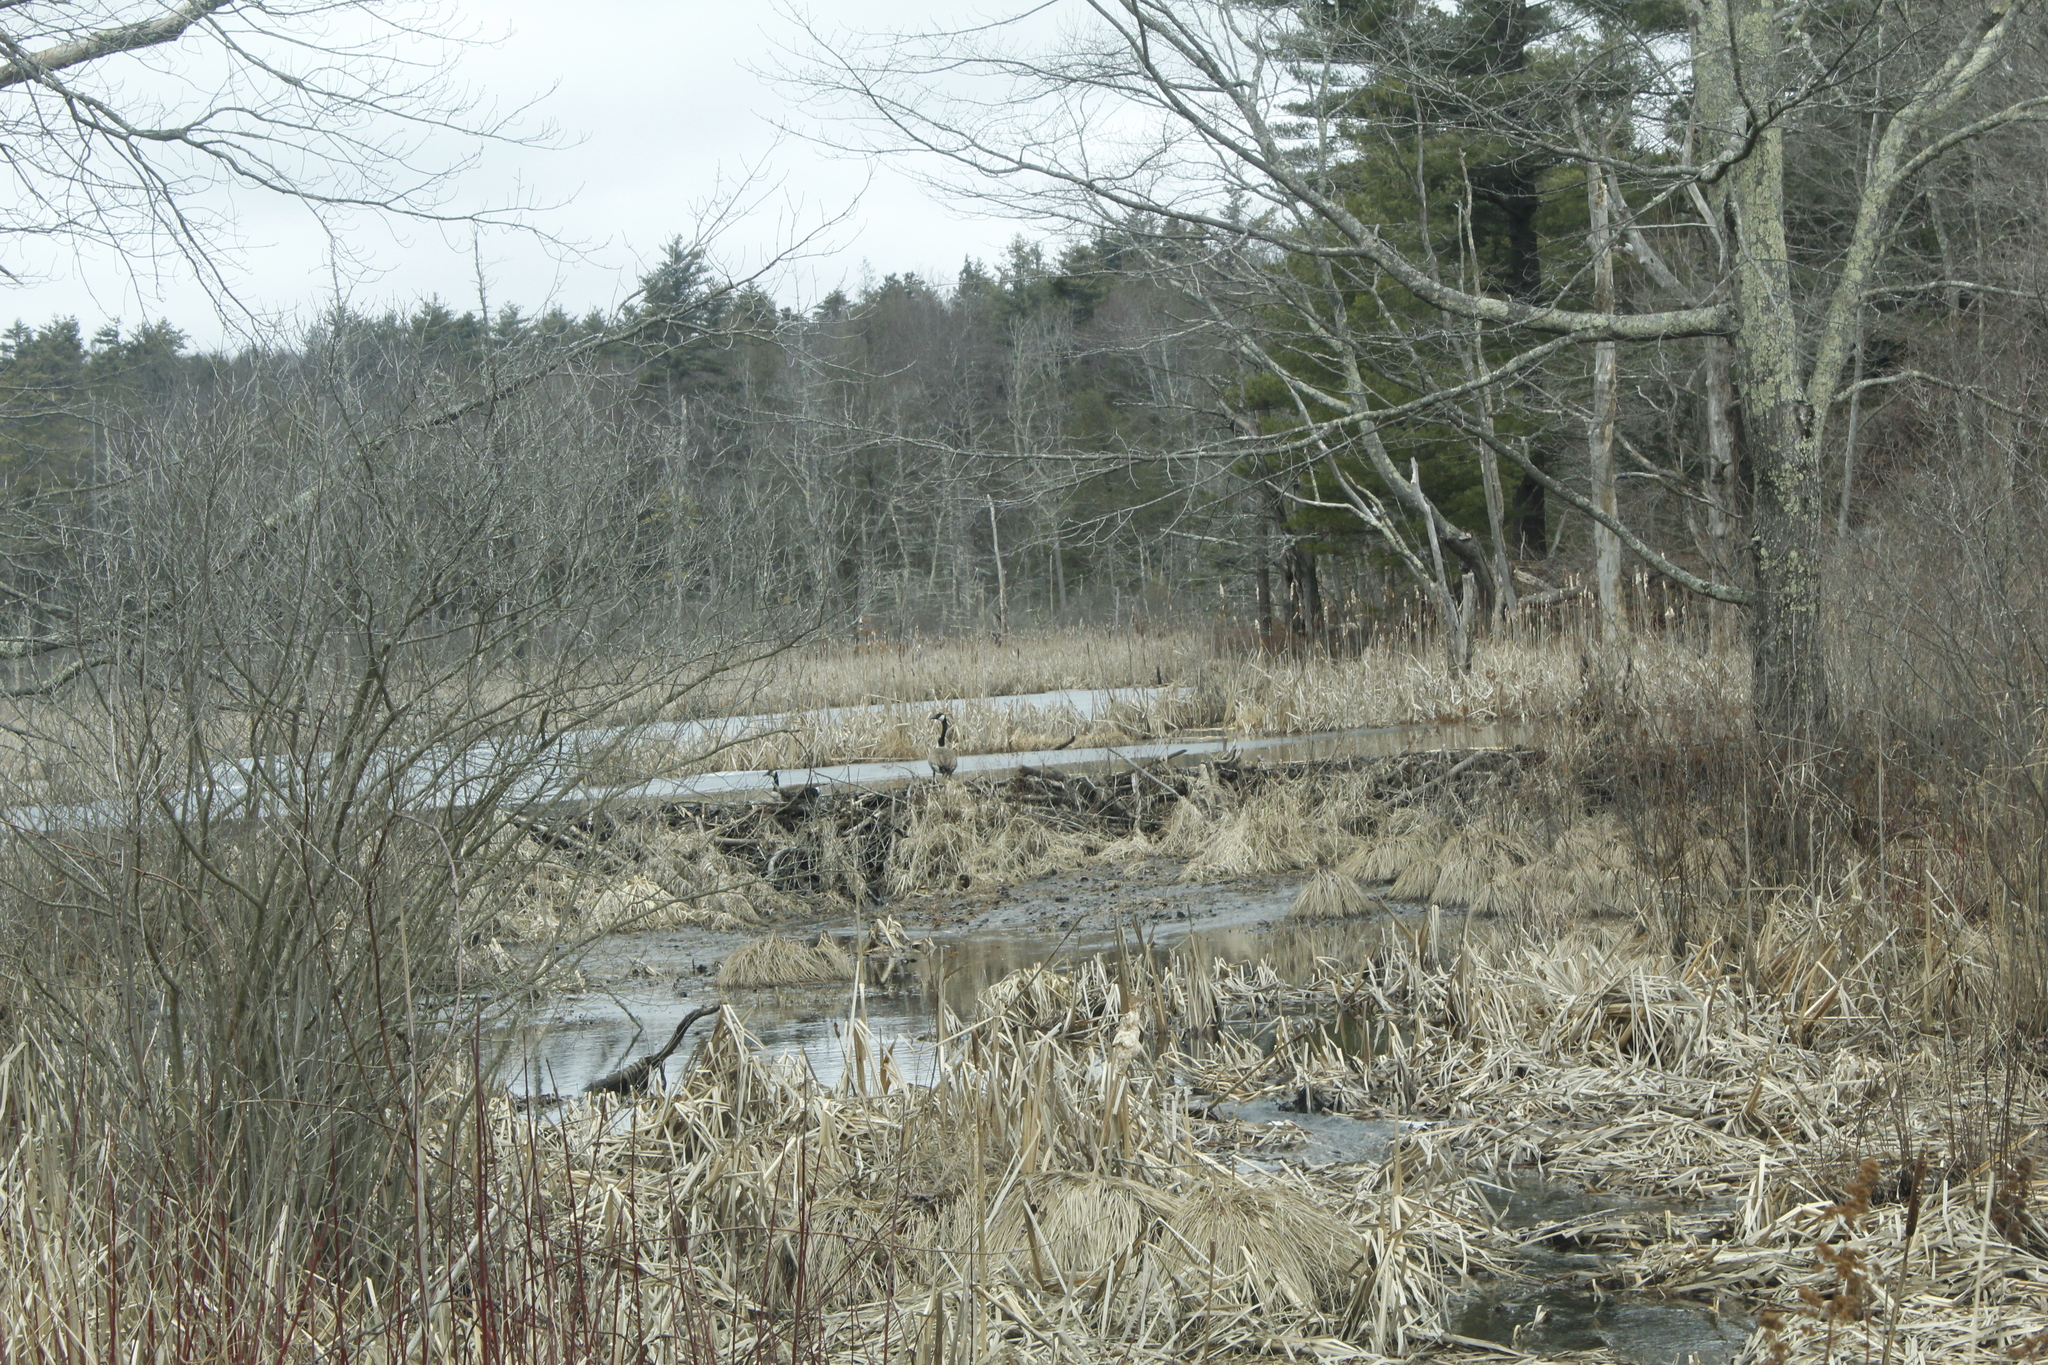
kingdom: Animalia
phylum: Chordata
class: Aves
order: Anseriformes
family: Anatidae
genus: Branta
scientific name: Branta canadensis
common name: Canada goose
